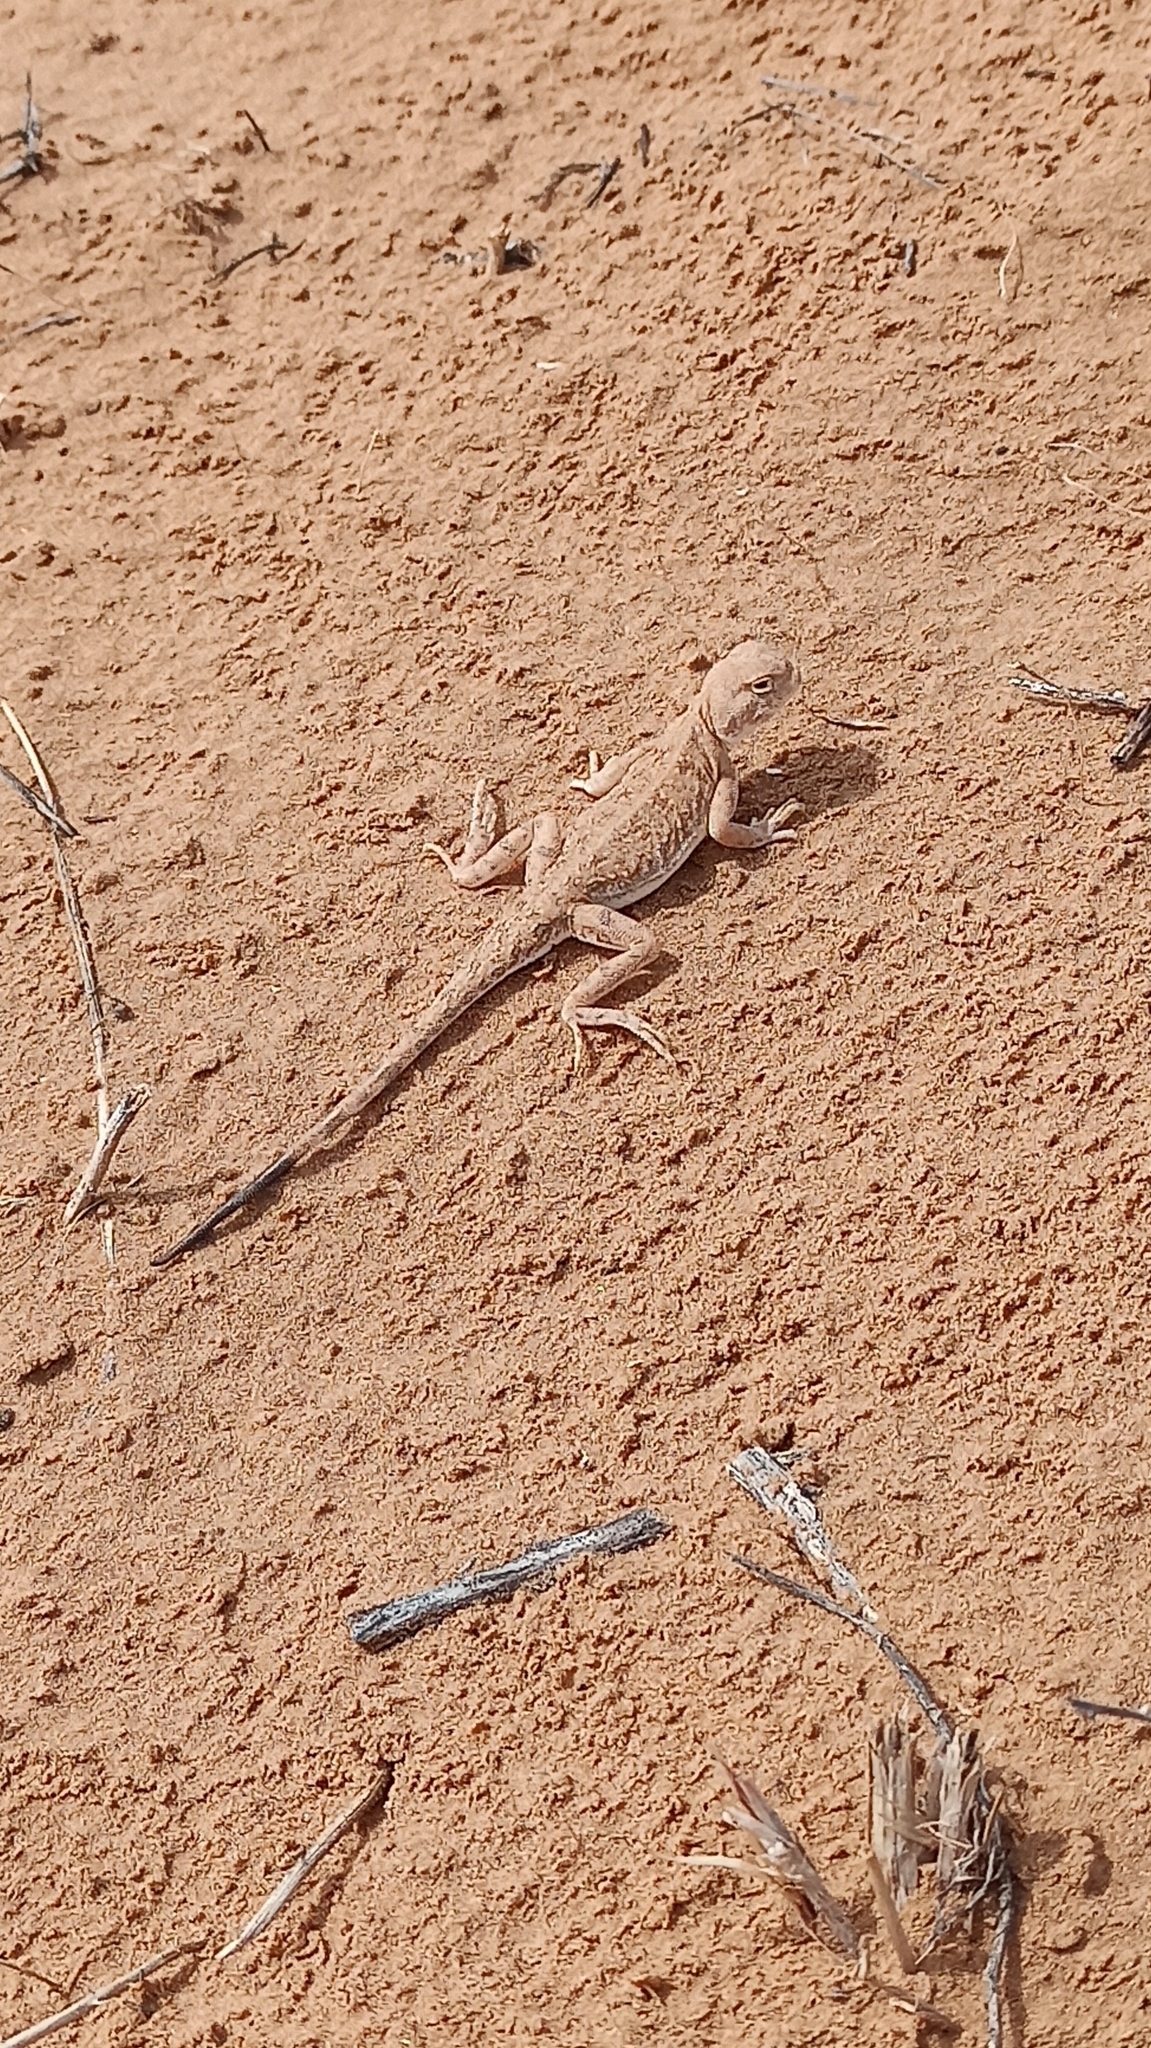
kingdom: Animalia
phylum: Chordata
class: Squamata
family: Agamidae
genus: Phrynocephalus
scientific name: Phrynocephalus guttatus
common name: Spotted toadhead agama
